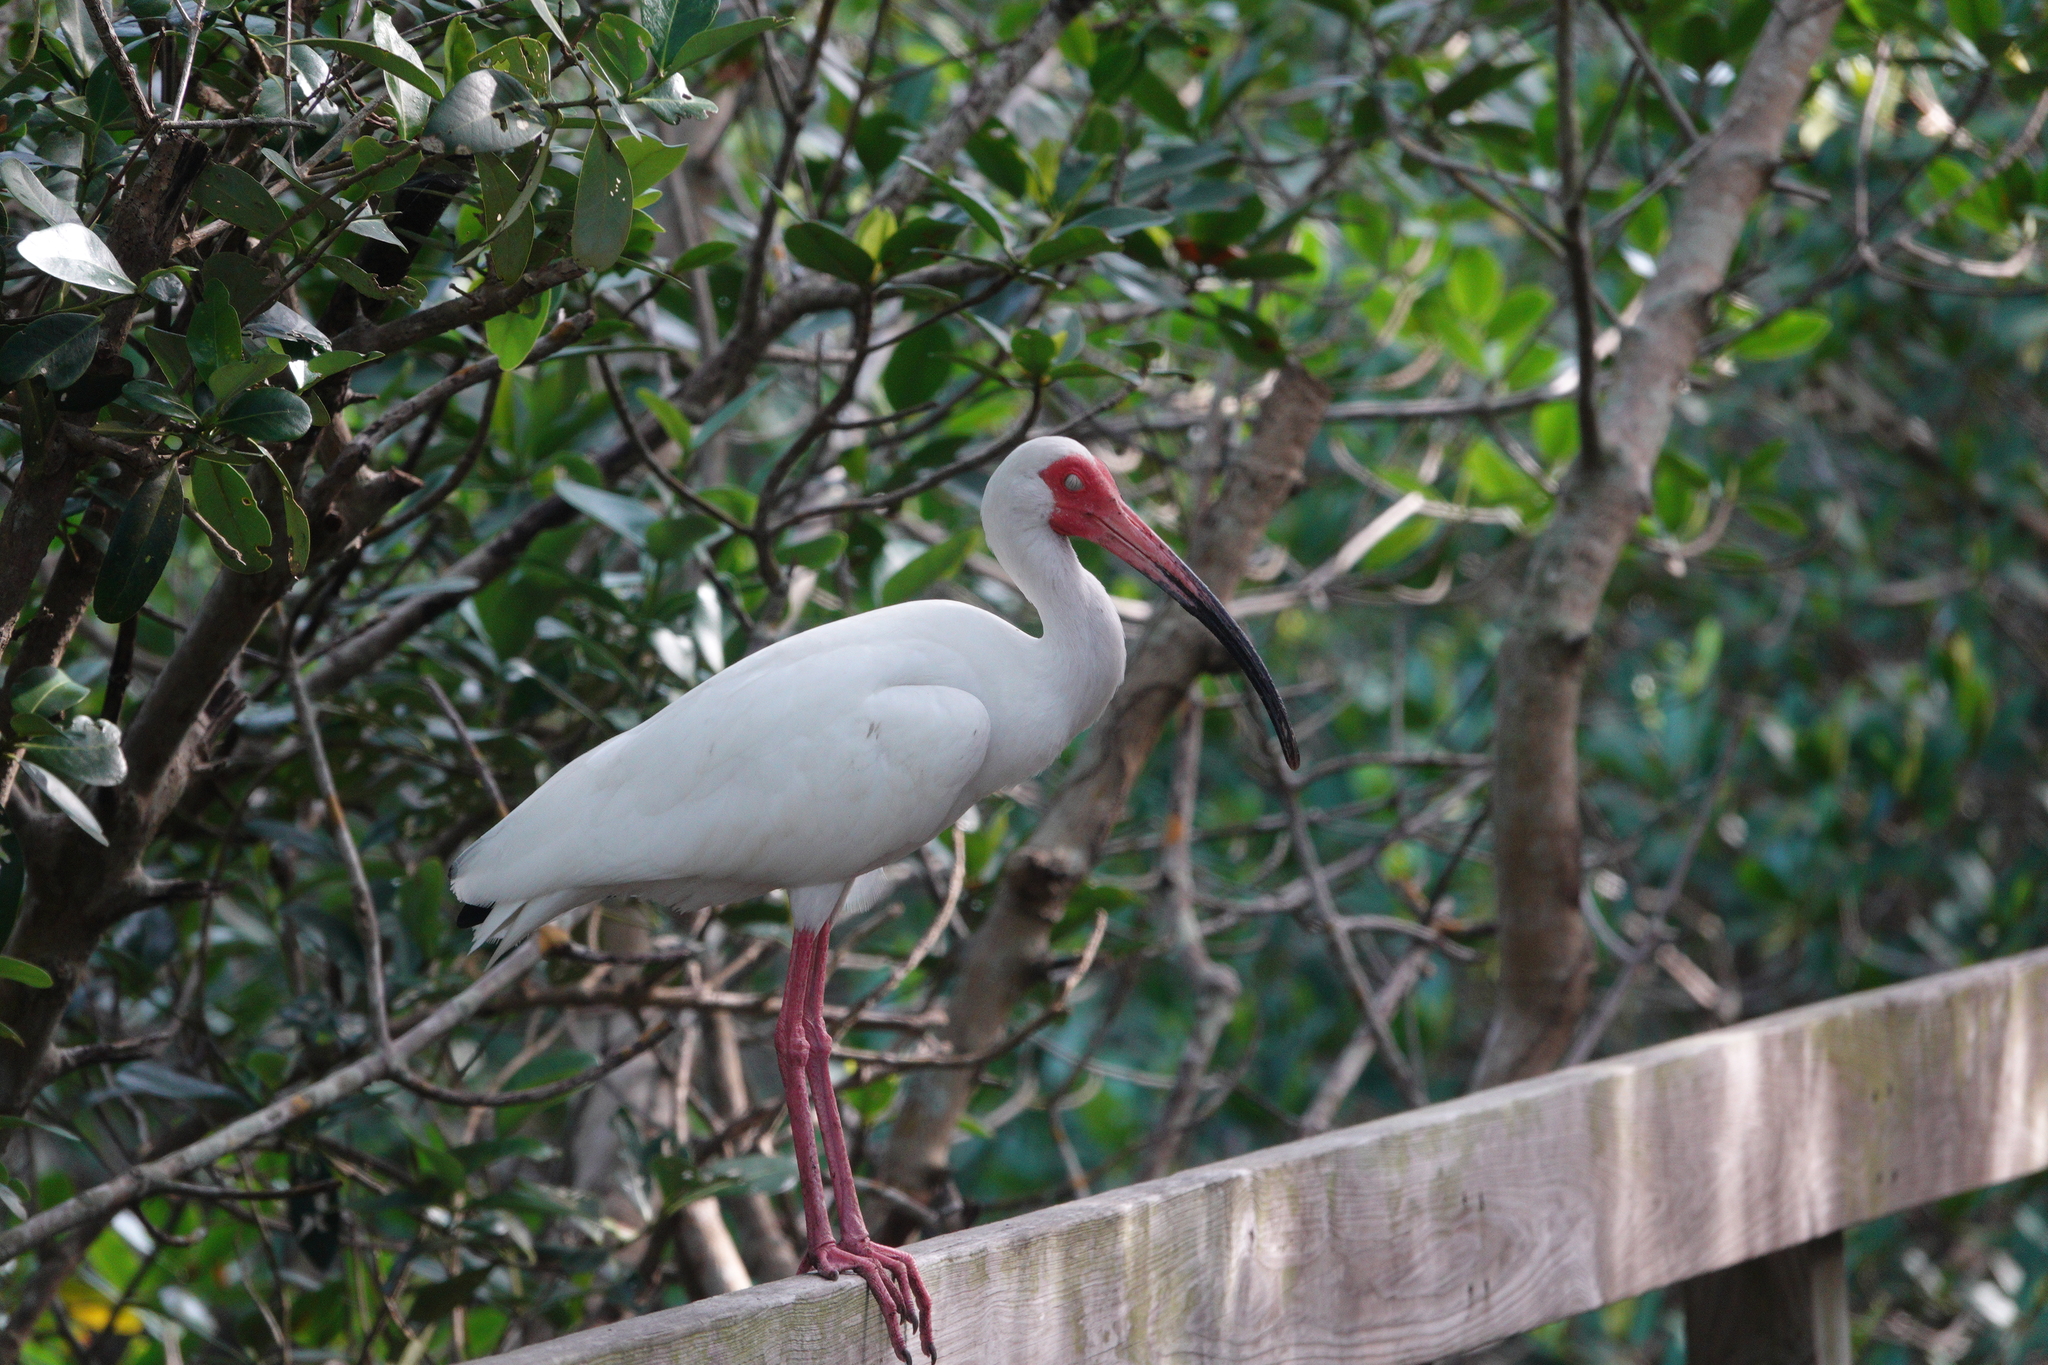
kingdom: Animalia
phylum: Chordata
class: Aves
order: Pelecaniformes
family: Threskiornithidae
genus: Eudocimus
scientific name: Eudocimus albus
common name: White ibis
